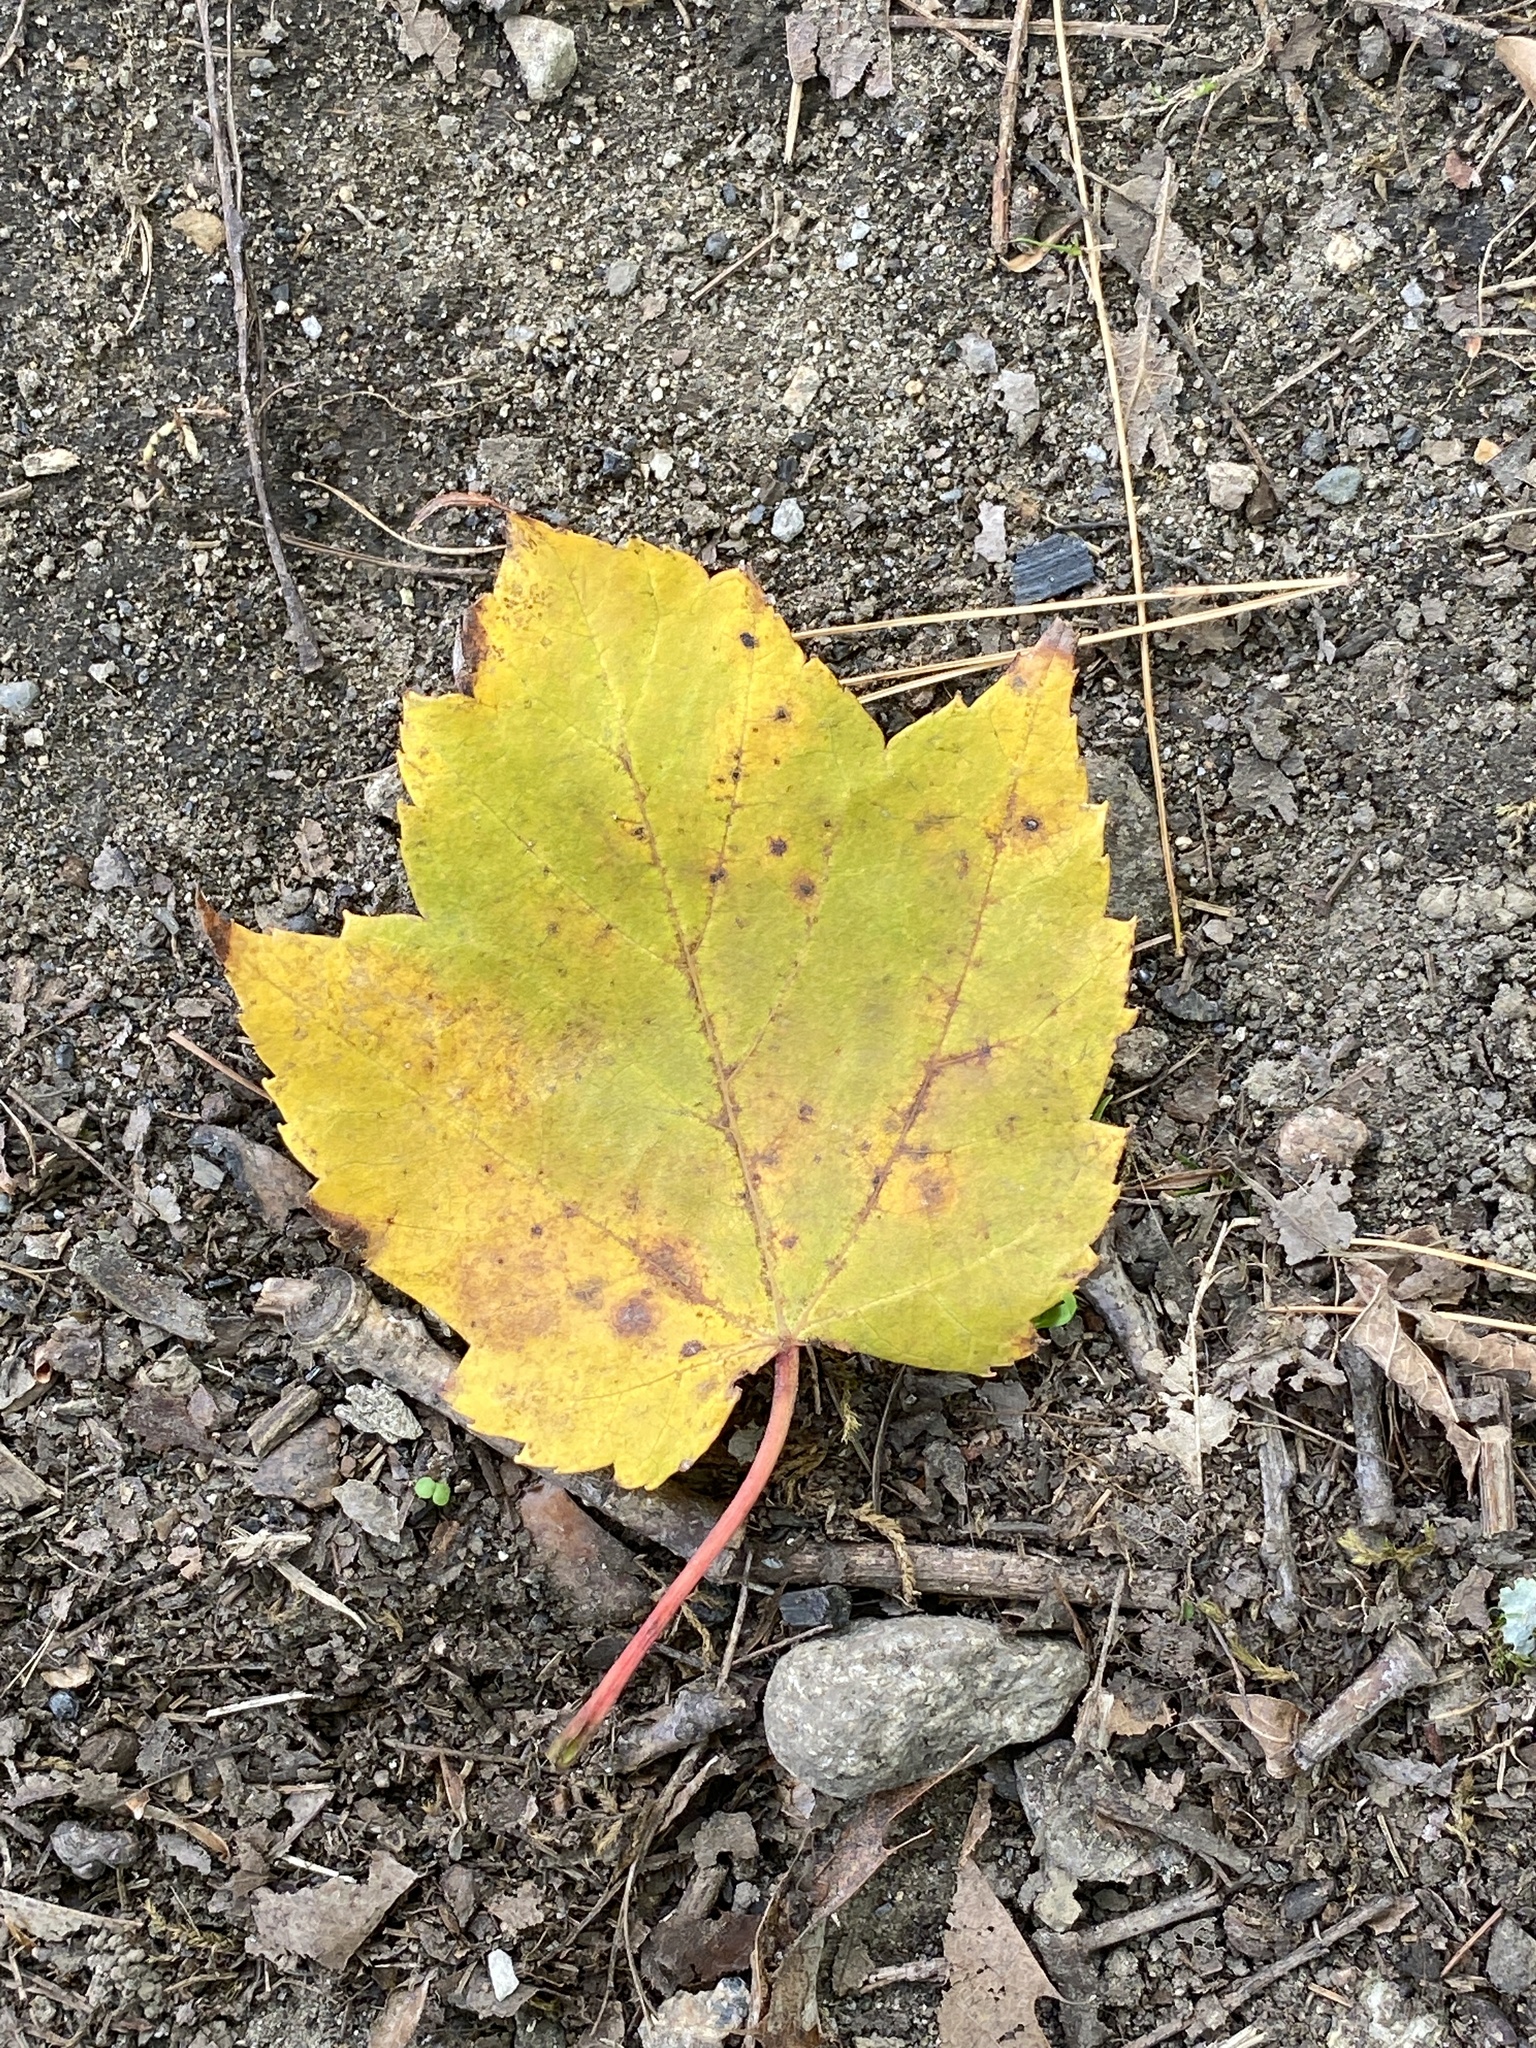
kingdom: Plantae
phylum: Tracheophyta
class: Magnoliopsida
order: Sapindales
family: Sapindaceae
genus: Acer
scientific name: Acer rubrum
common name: Red maple
